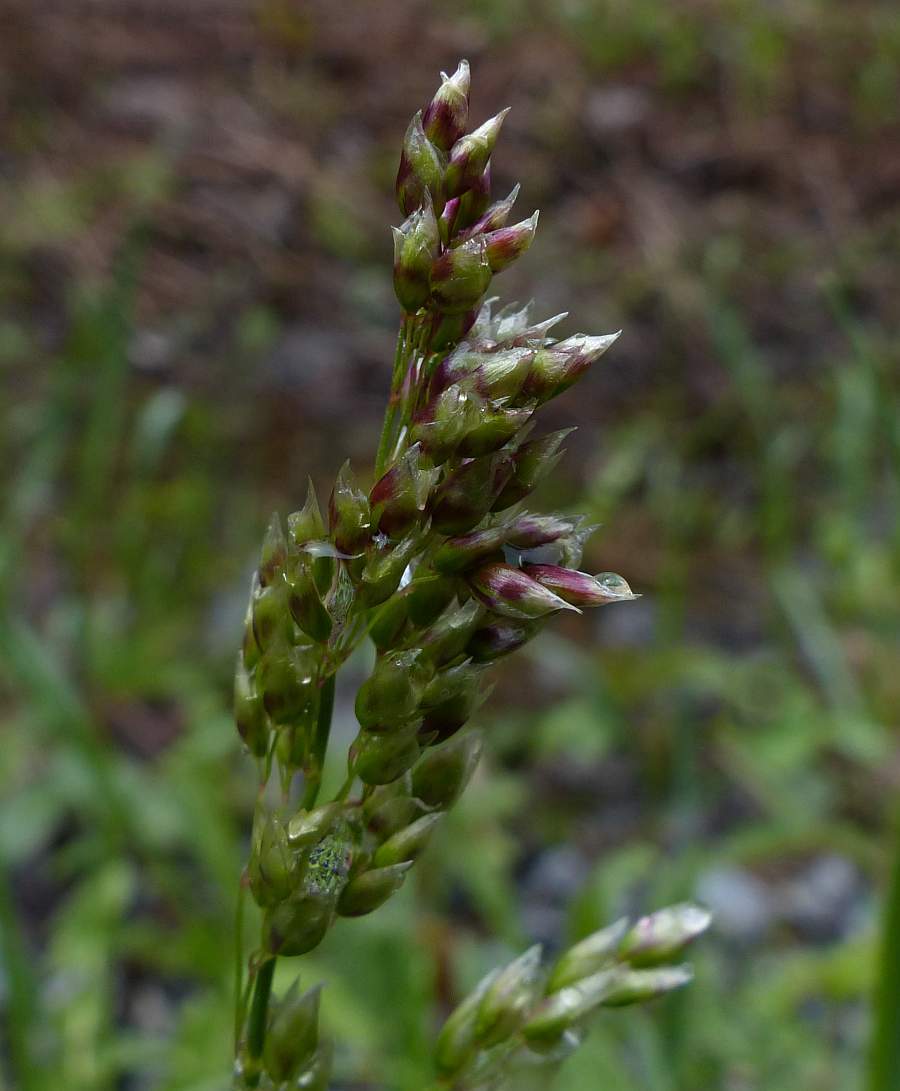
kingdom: Plantae
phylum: Tracheophyta
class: Liliopsida
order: Poales
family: Poaceae
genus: Anthoxanthum
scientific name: Anthoxanthum nitens
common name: Holy grass
